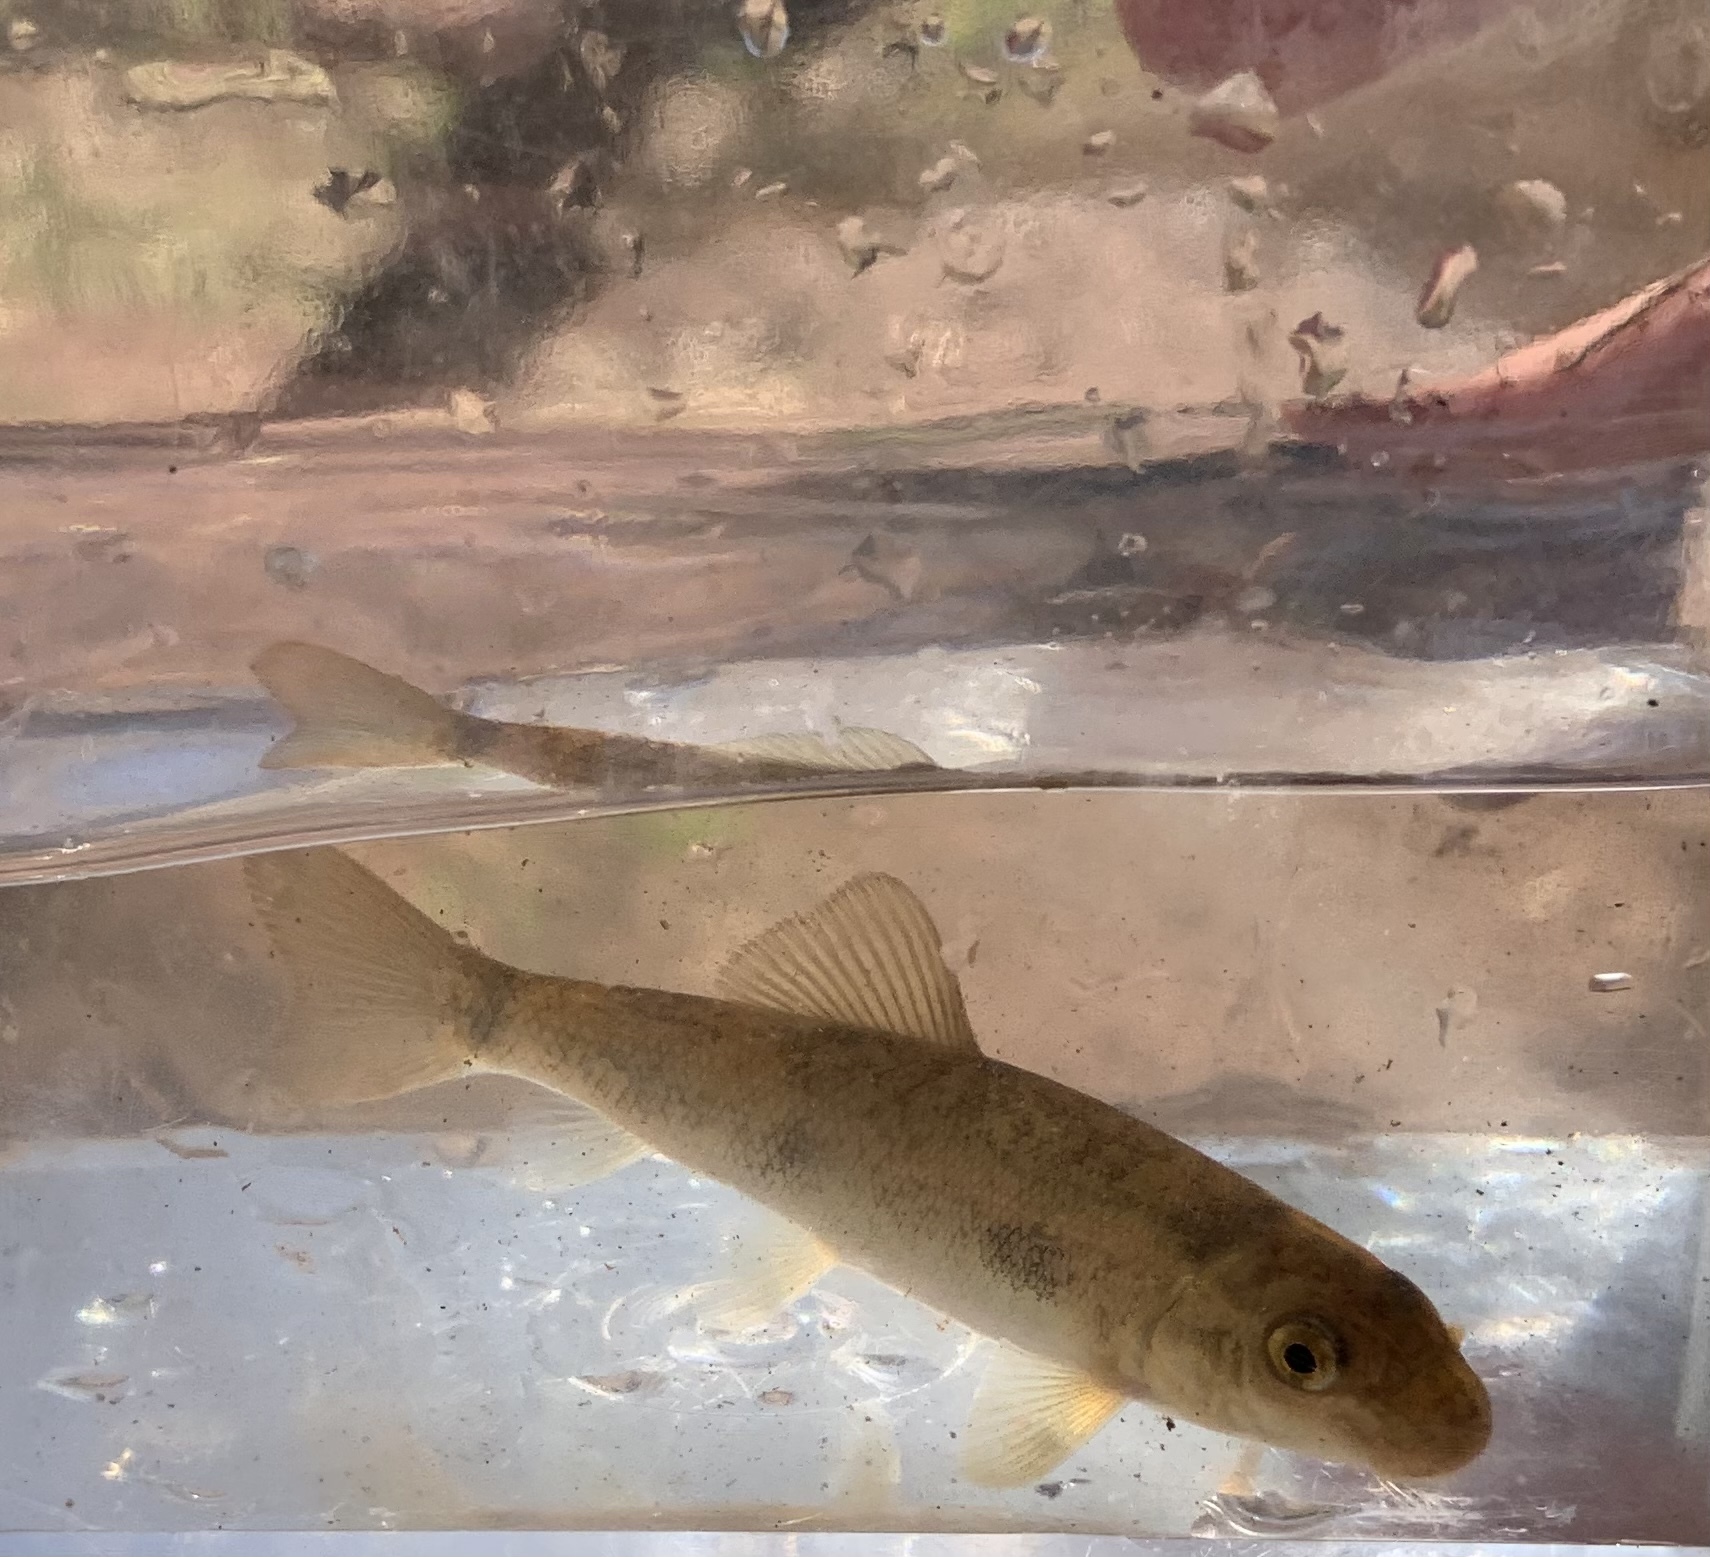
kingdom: Animalia
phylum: Chordata
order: Cypriniformes
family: Catostomidae
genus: Catostomus
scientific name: Catostomus commersonii
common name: White sucker
